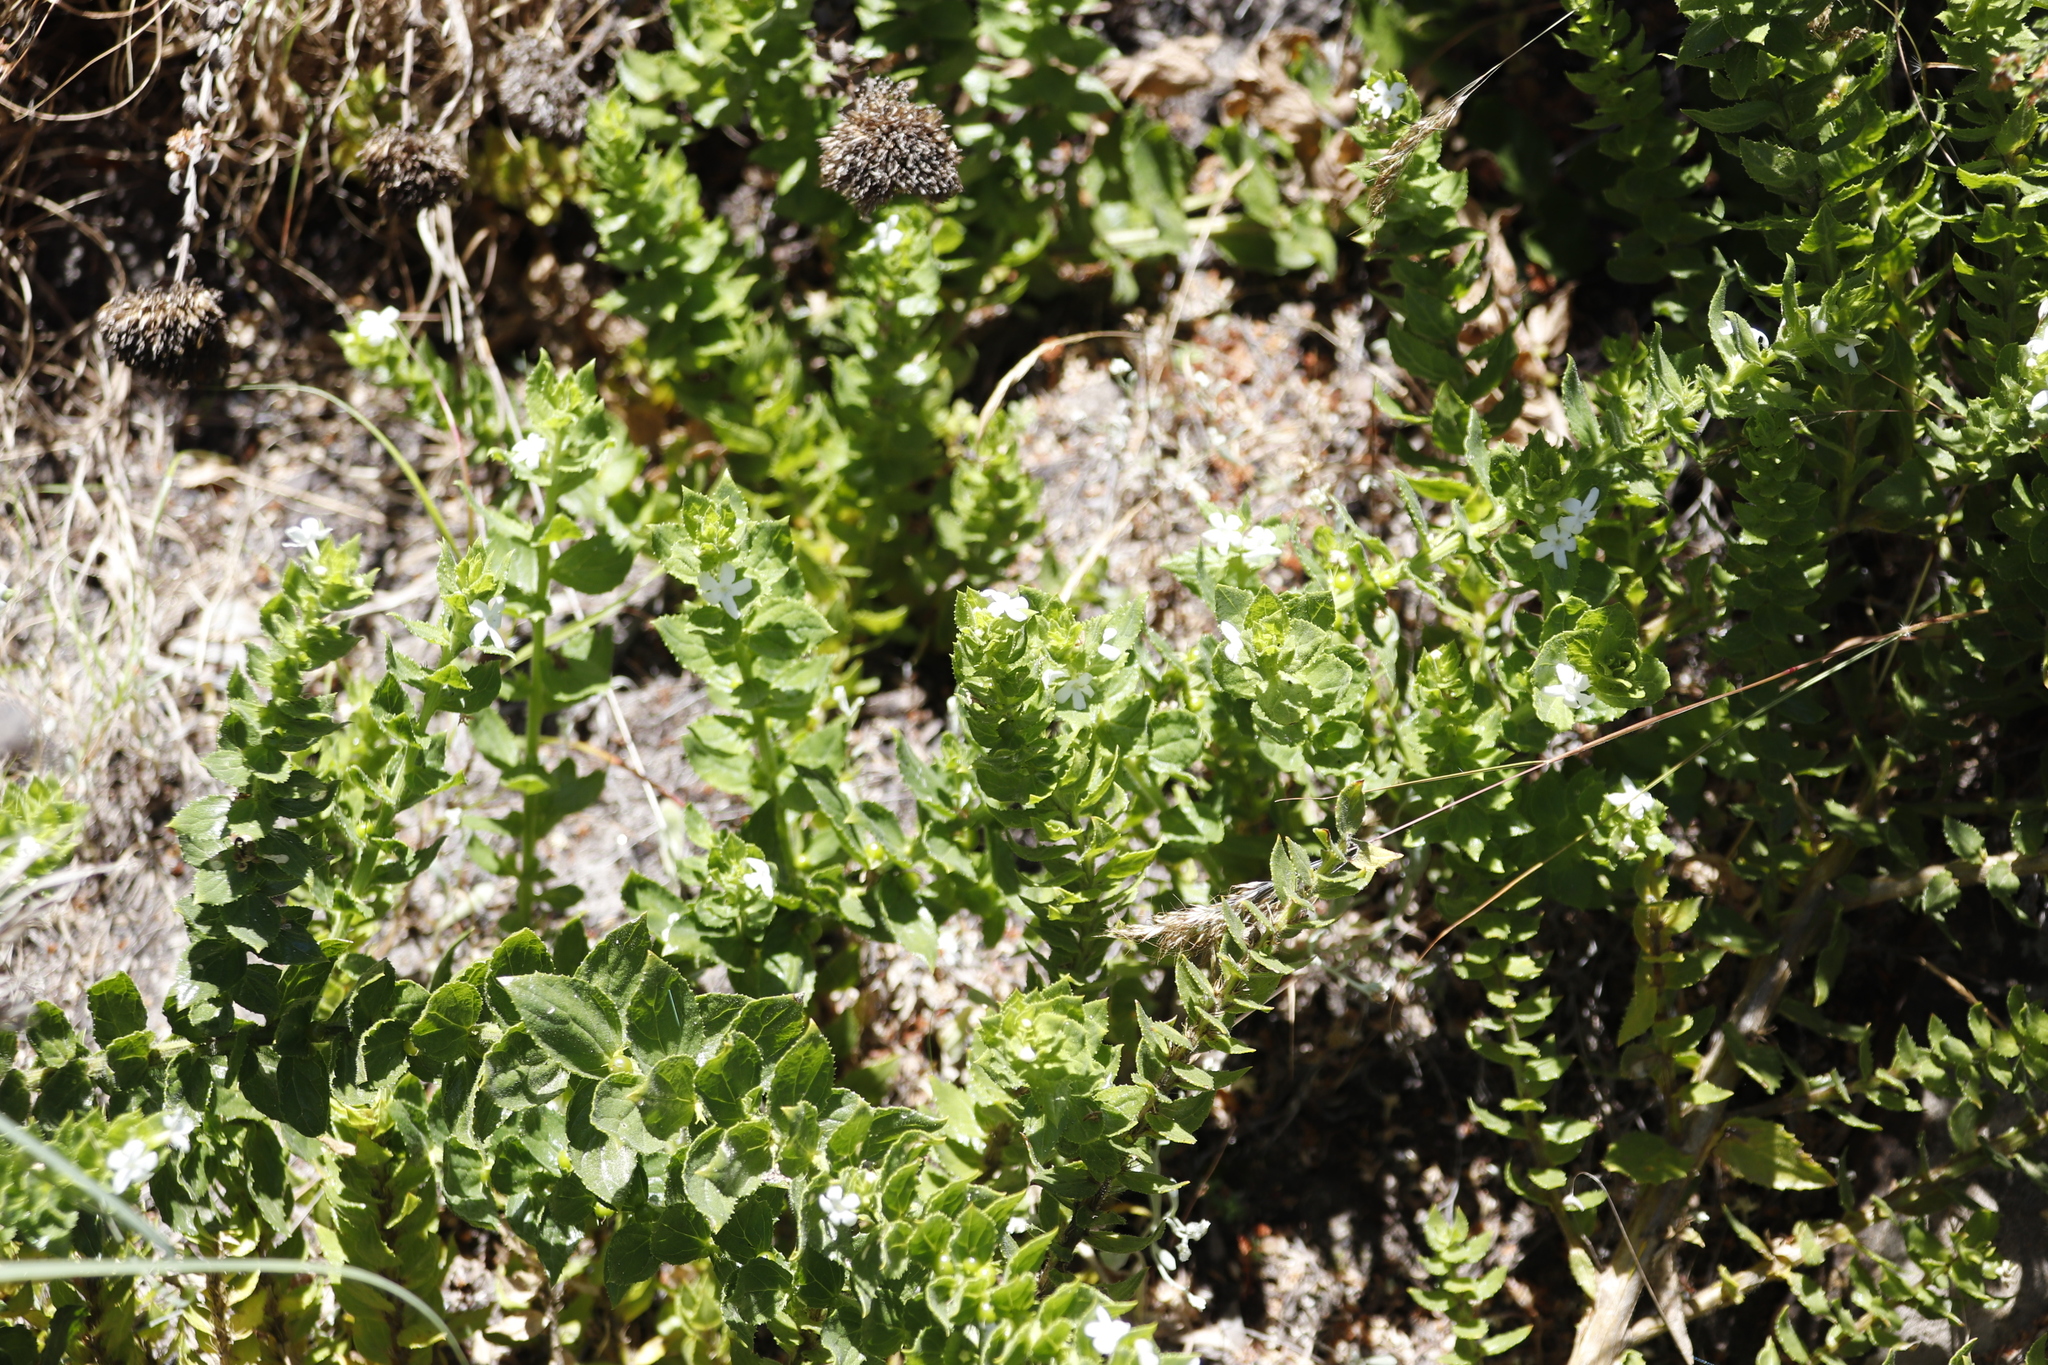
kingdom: Plantae
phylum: Tracheophyta
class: Magnoliopsida
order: Lamiales
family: Scrophulariaceae
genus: Oftia
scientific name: Oftia africana
